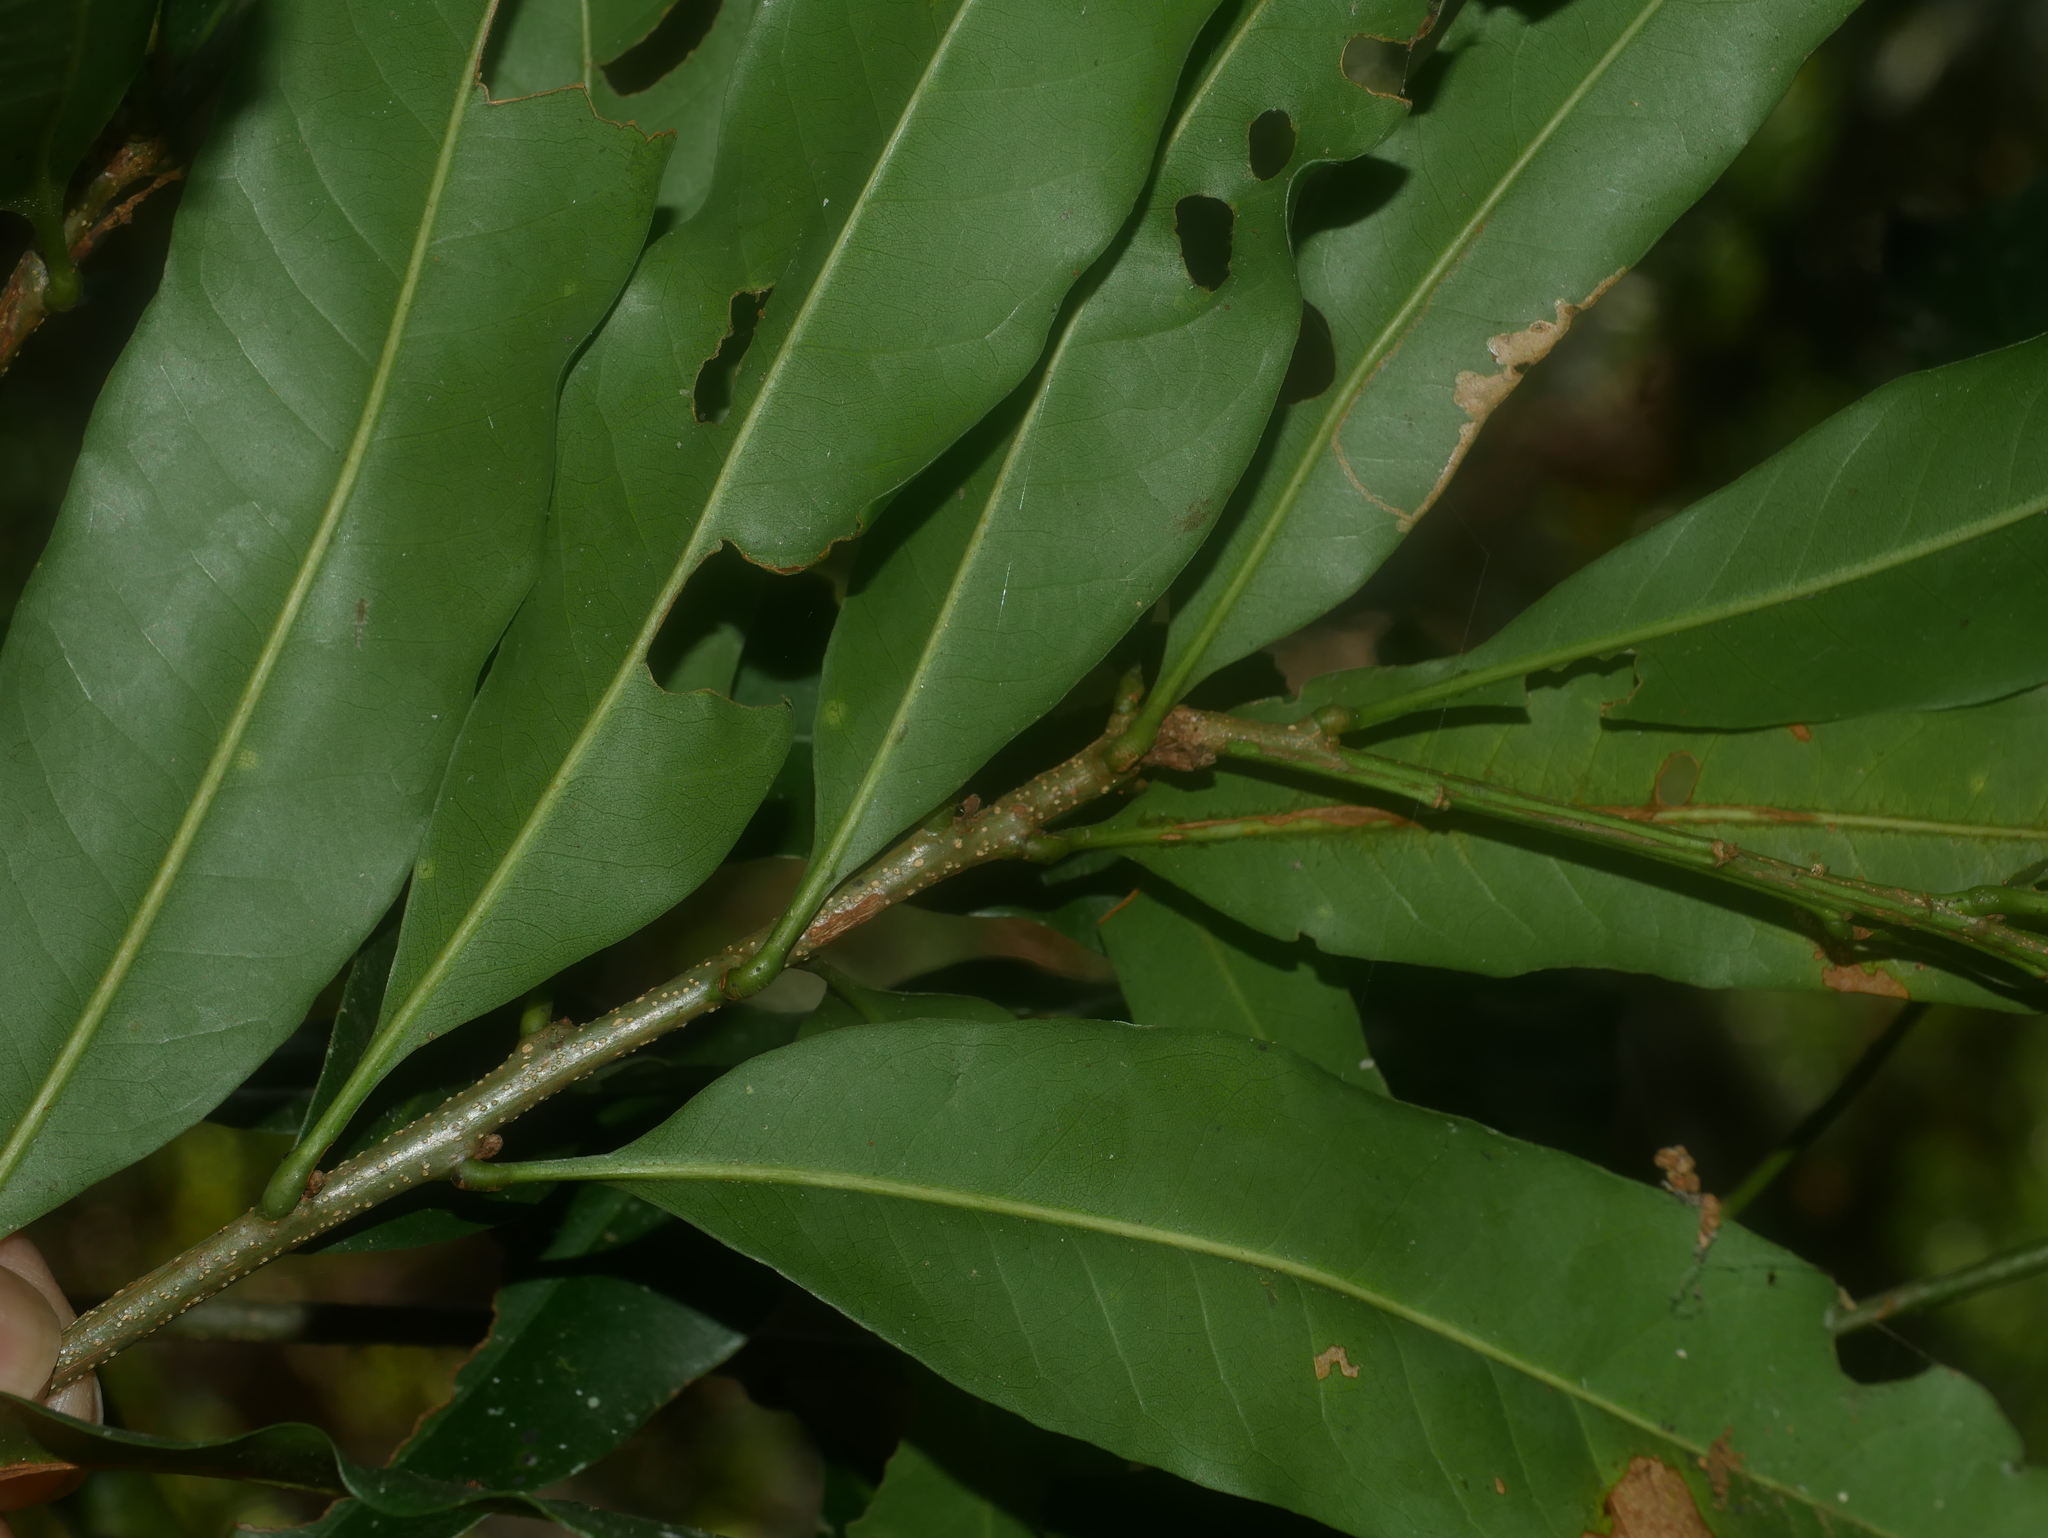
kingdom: Plantae
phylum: Tracheophyta
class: Magnoliopsida
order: Fagales
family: Fagaceae
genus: Lithocarpus
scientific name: Lithocarpus hancei
